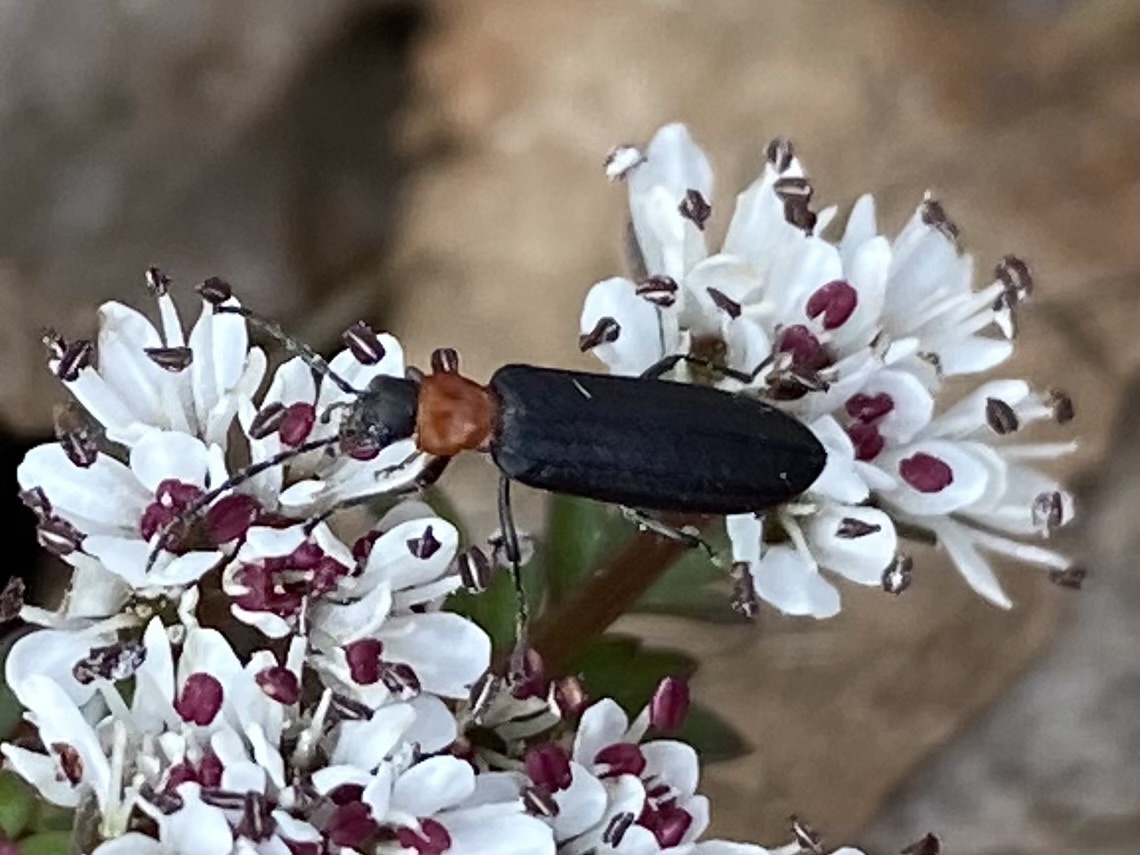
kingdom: Animalia
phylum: Arthropoda
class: Insecta
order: Coleoptera
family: Oedemeridae
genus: Ischnomera
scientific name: Ischnomera
